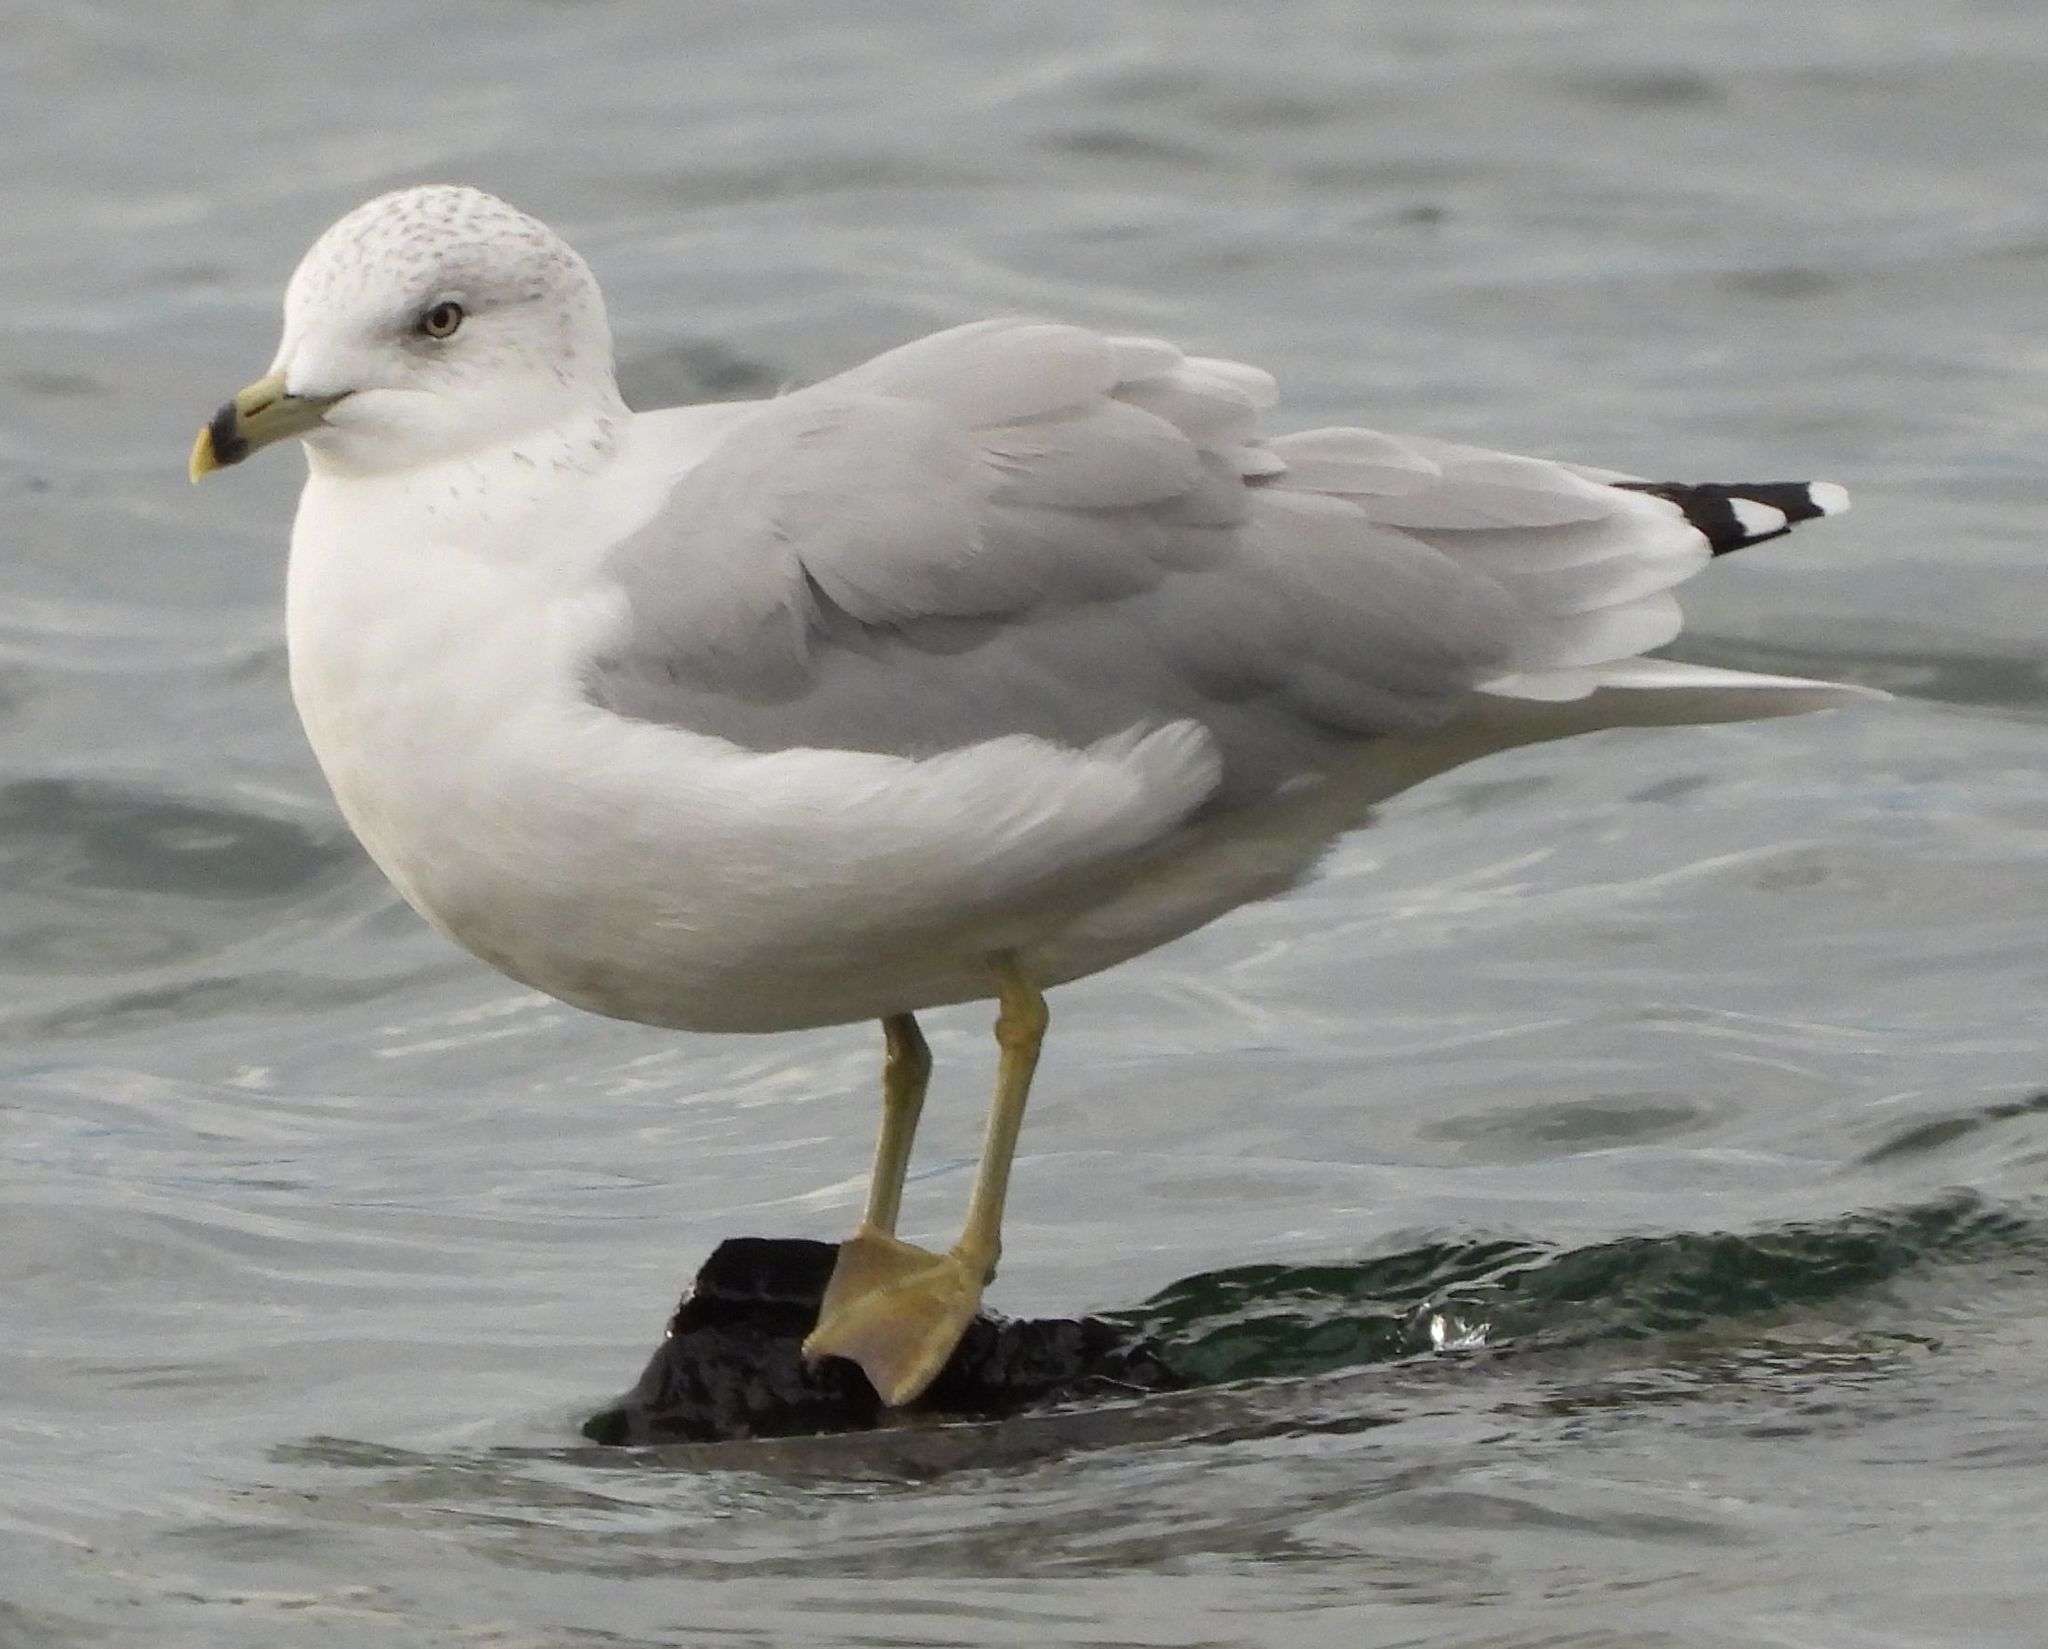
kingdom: Animalia
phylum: Chordata
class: Aves
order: Charadriiformes
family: Laridae
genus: Larus
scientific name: Larus delawarensis
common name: Ring-billed gull
